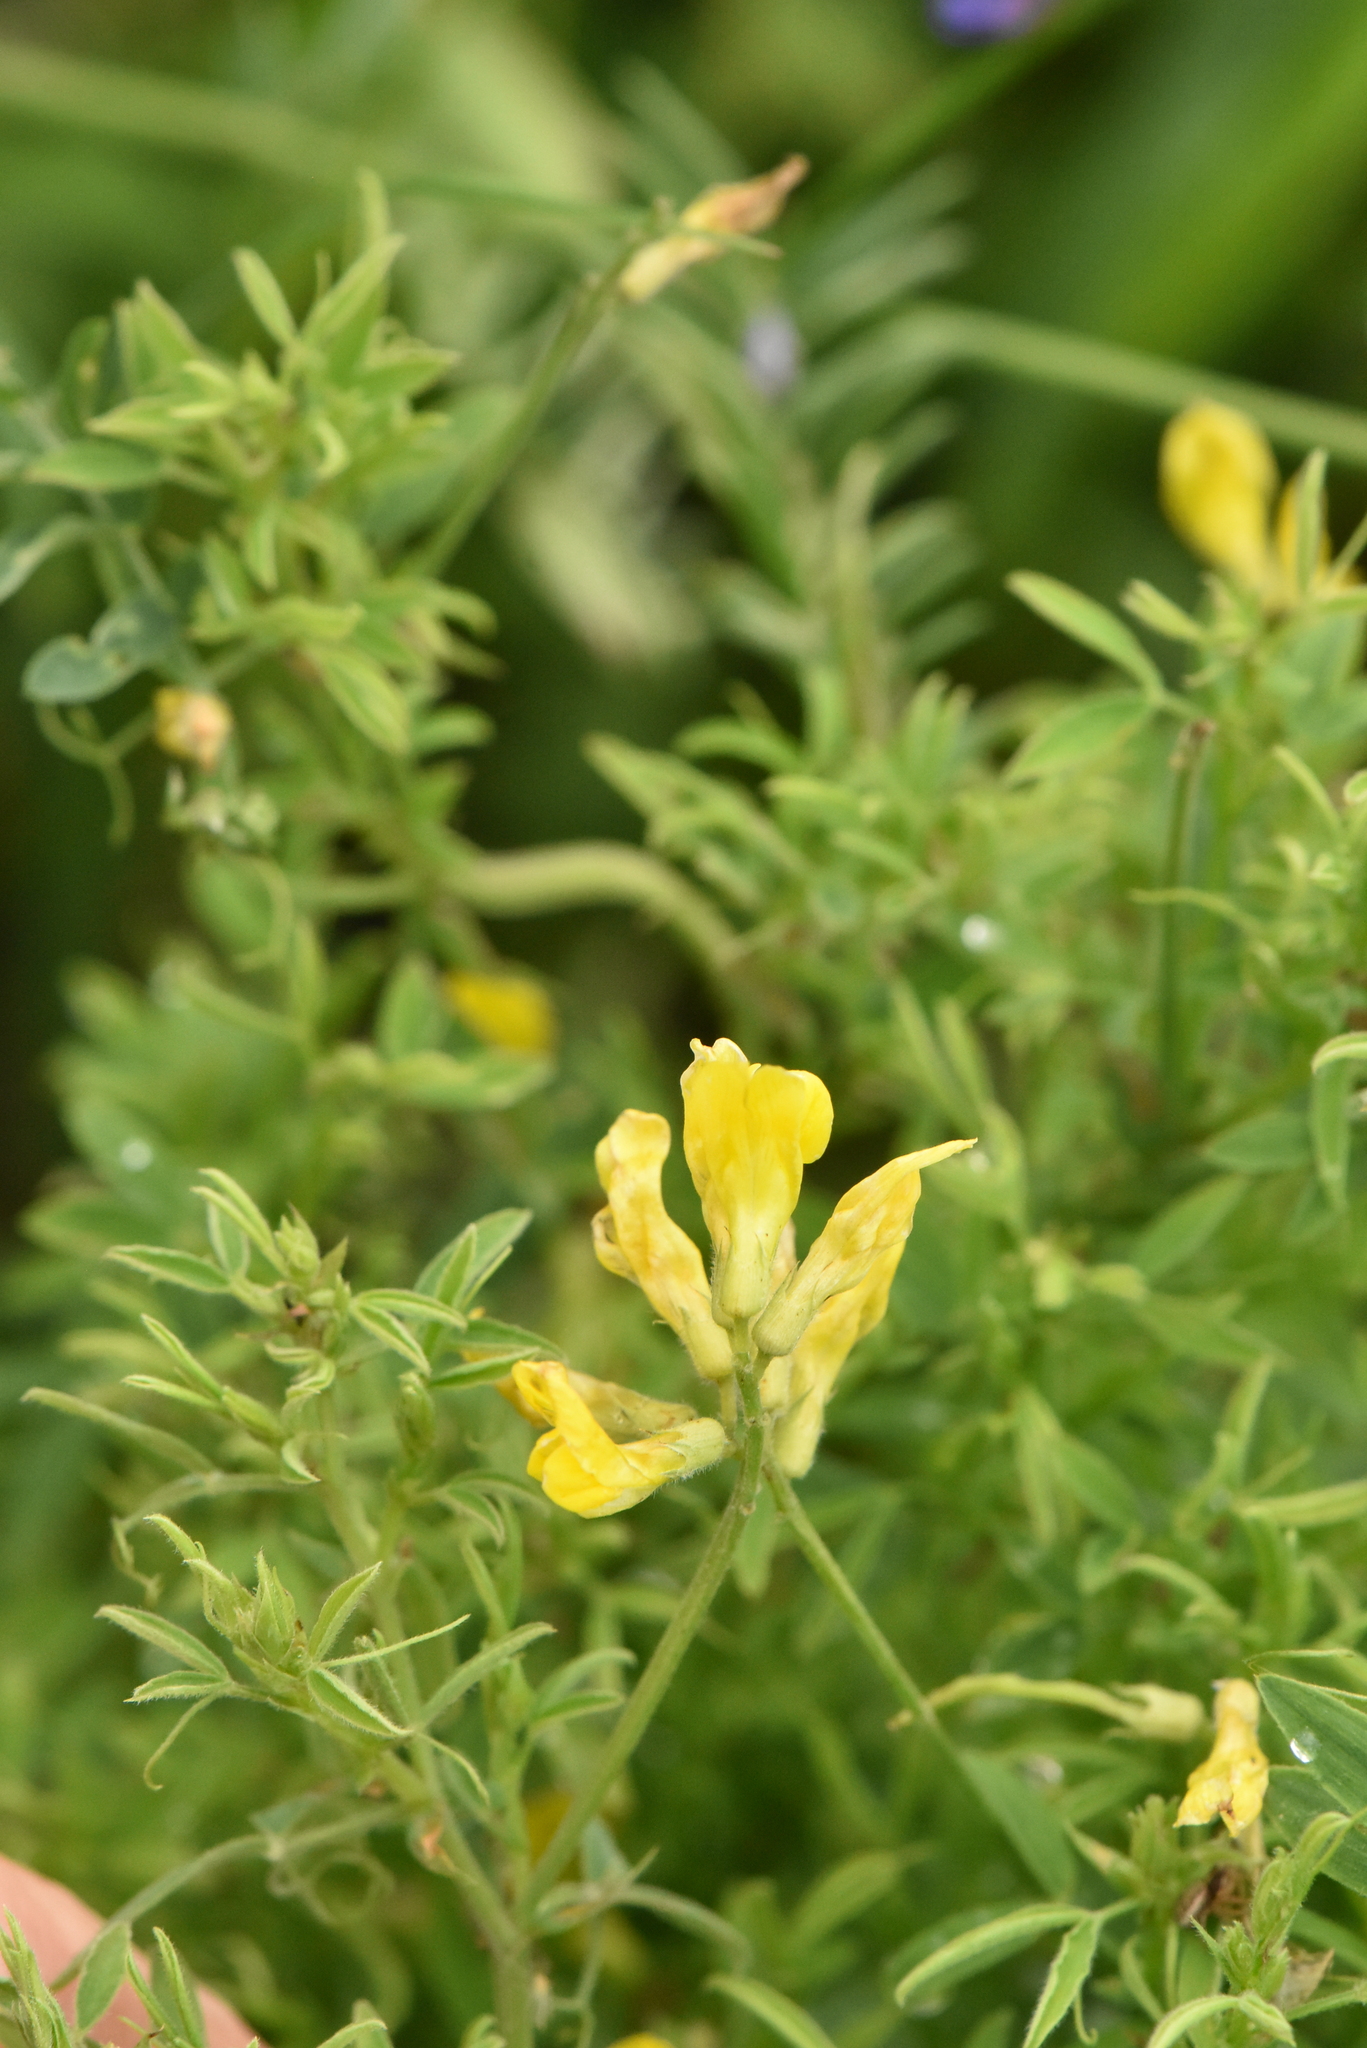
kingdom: Plantae
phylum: Tracheophyta
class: Magnoliopsida
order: Fabales
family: Fabaceae
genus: Lathyrus
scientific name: Lathyrus pratensis
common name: Meadow vetchling
